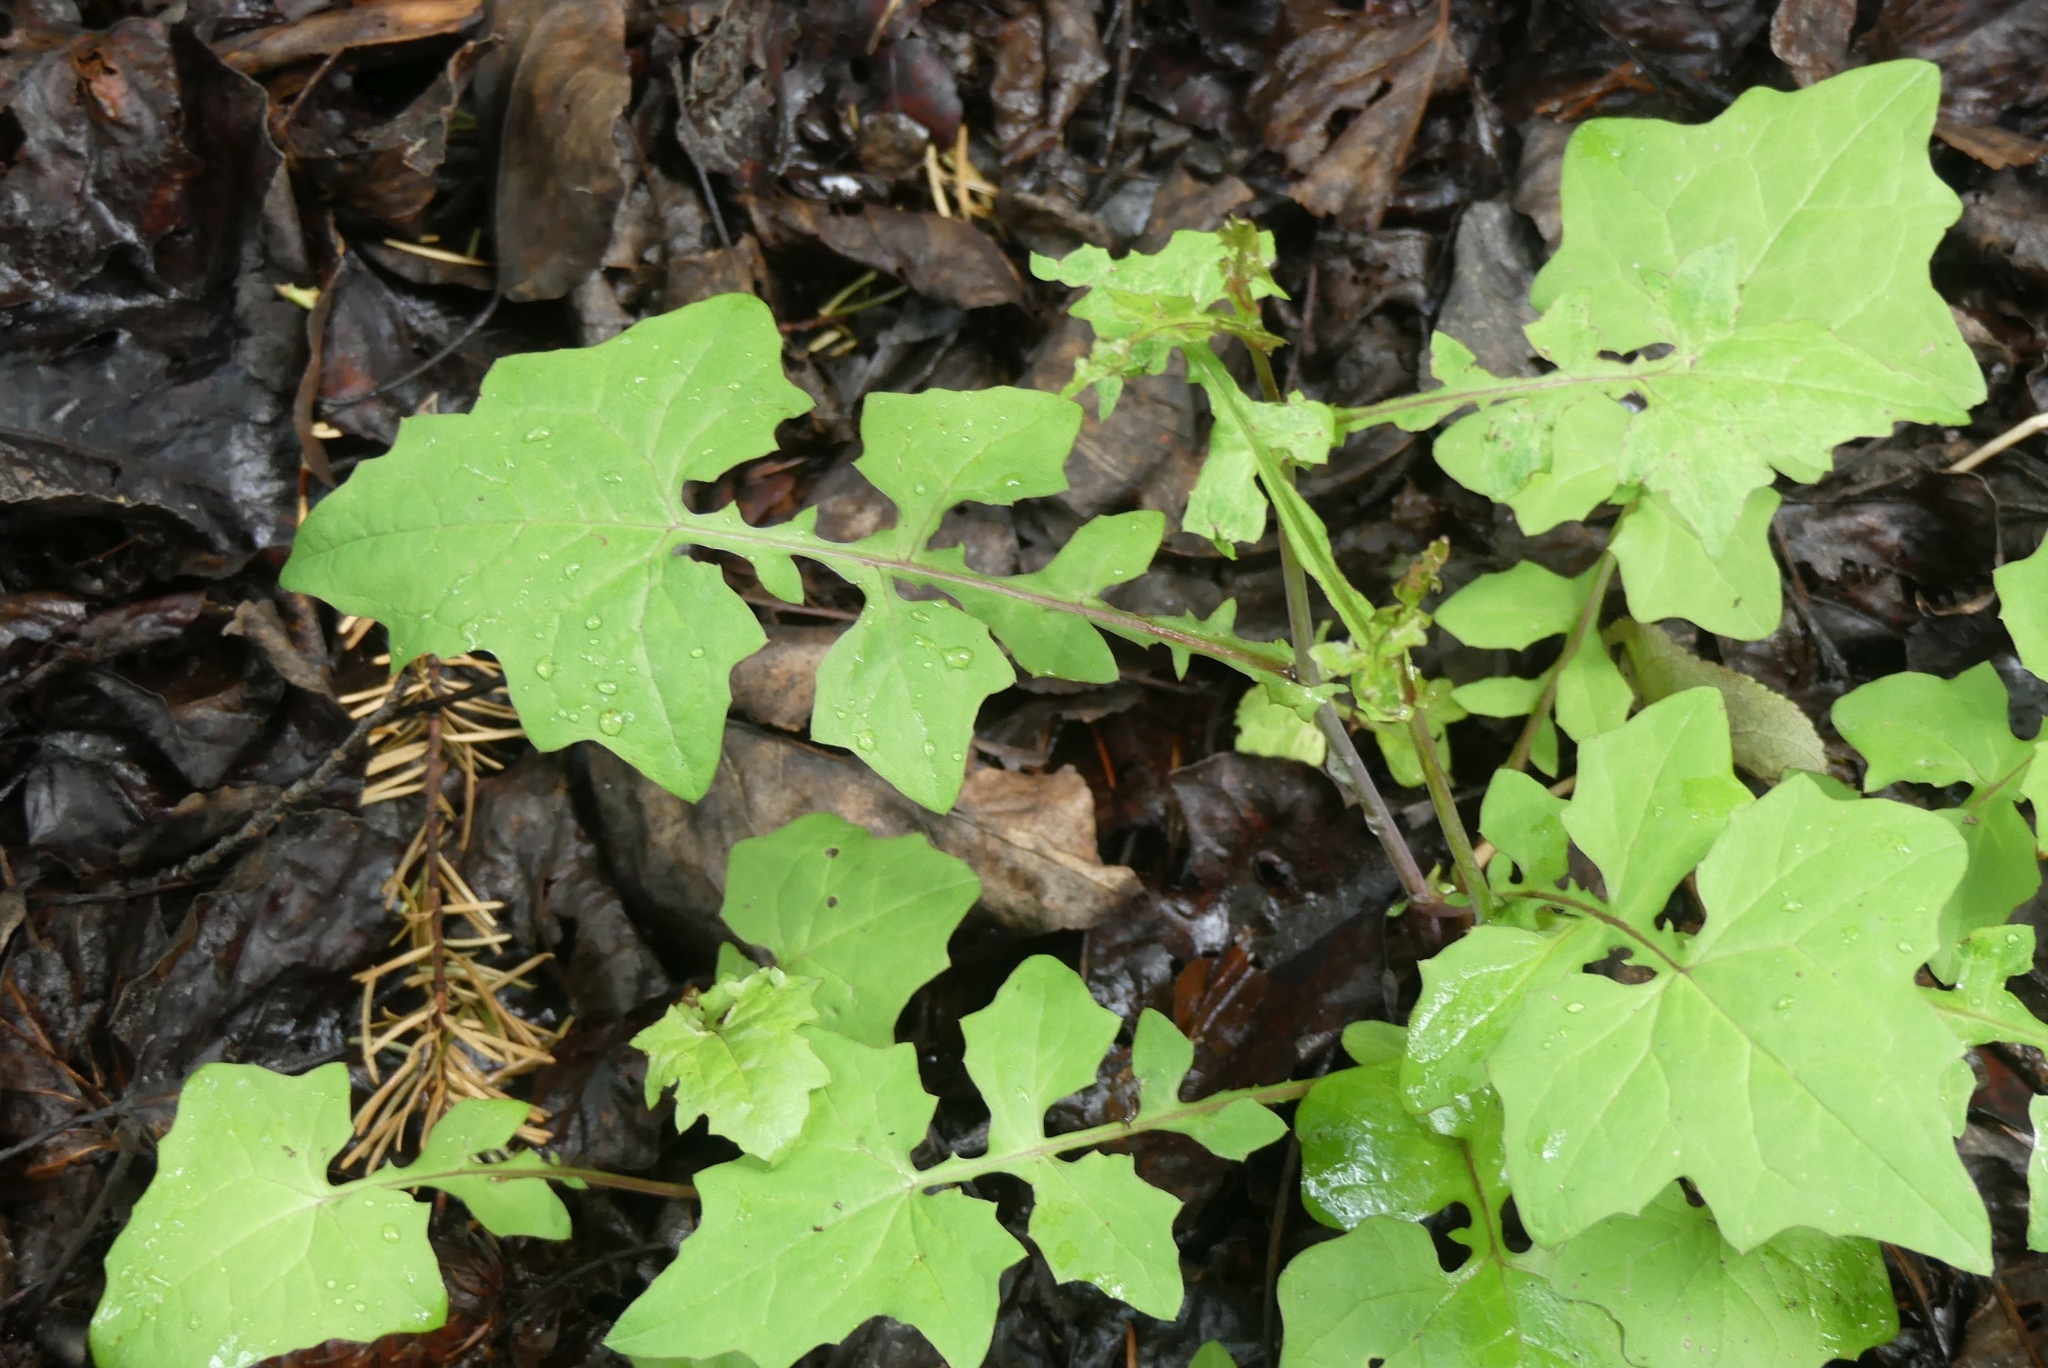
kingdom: Plantae
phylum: Tracheophyta
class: Magnoliopsida
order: Asterales
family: Asteraceae
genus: Mycelis
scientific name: Mycelis muralis
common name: Wall lettuce
